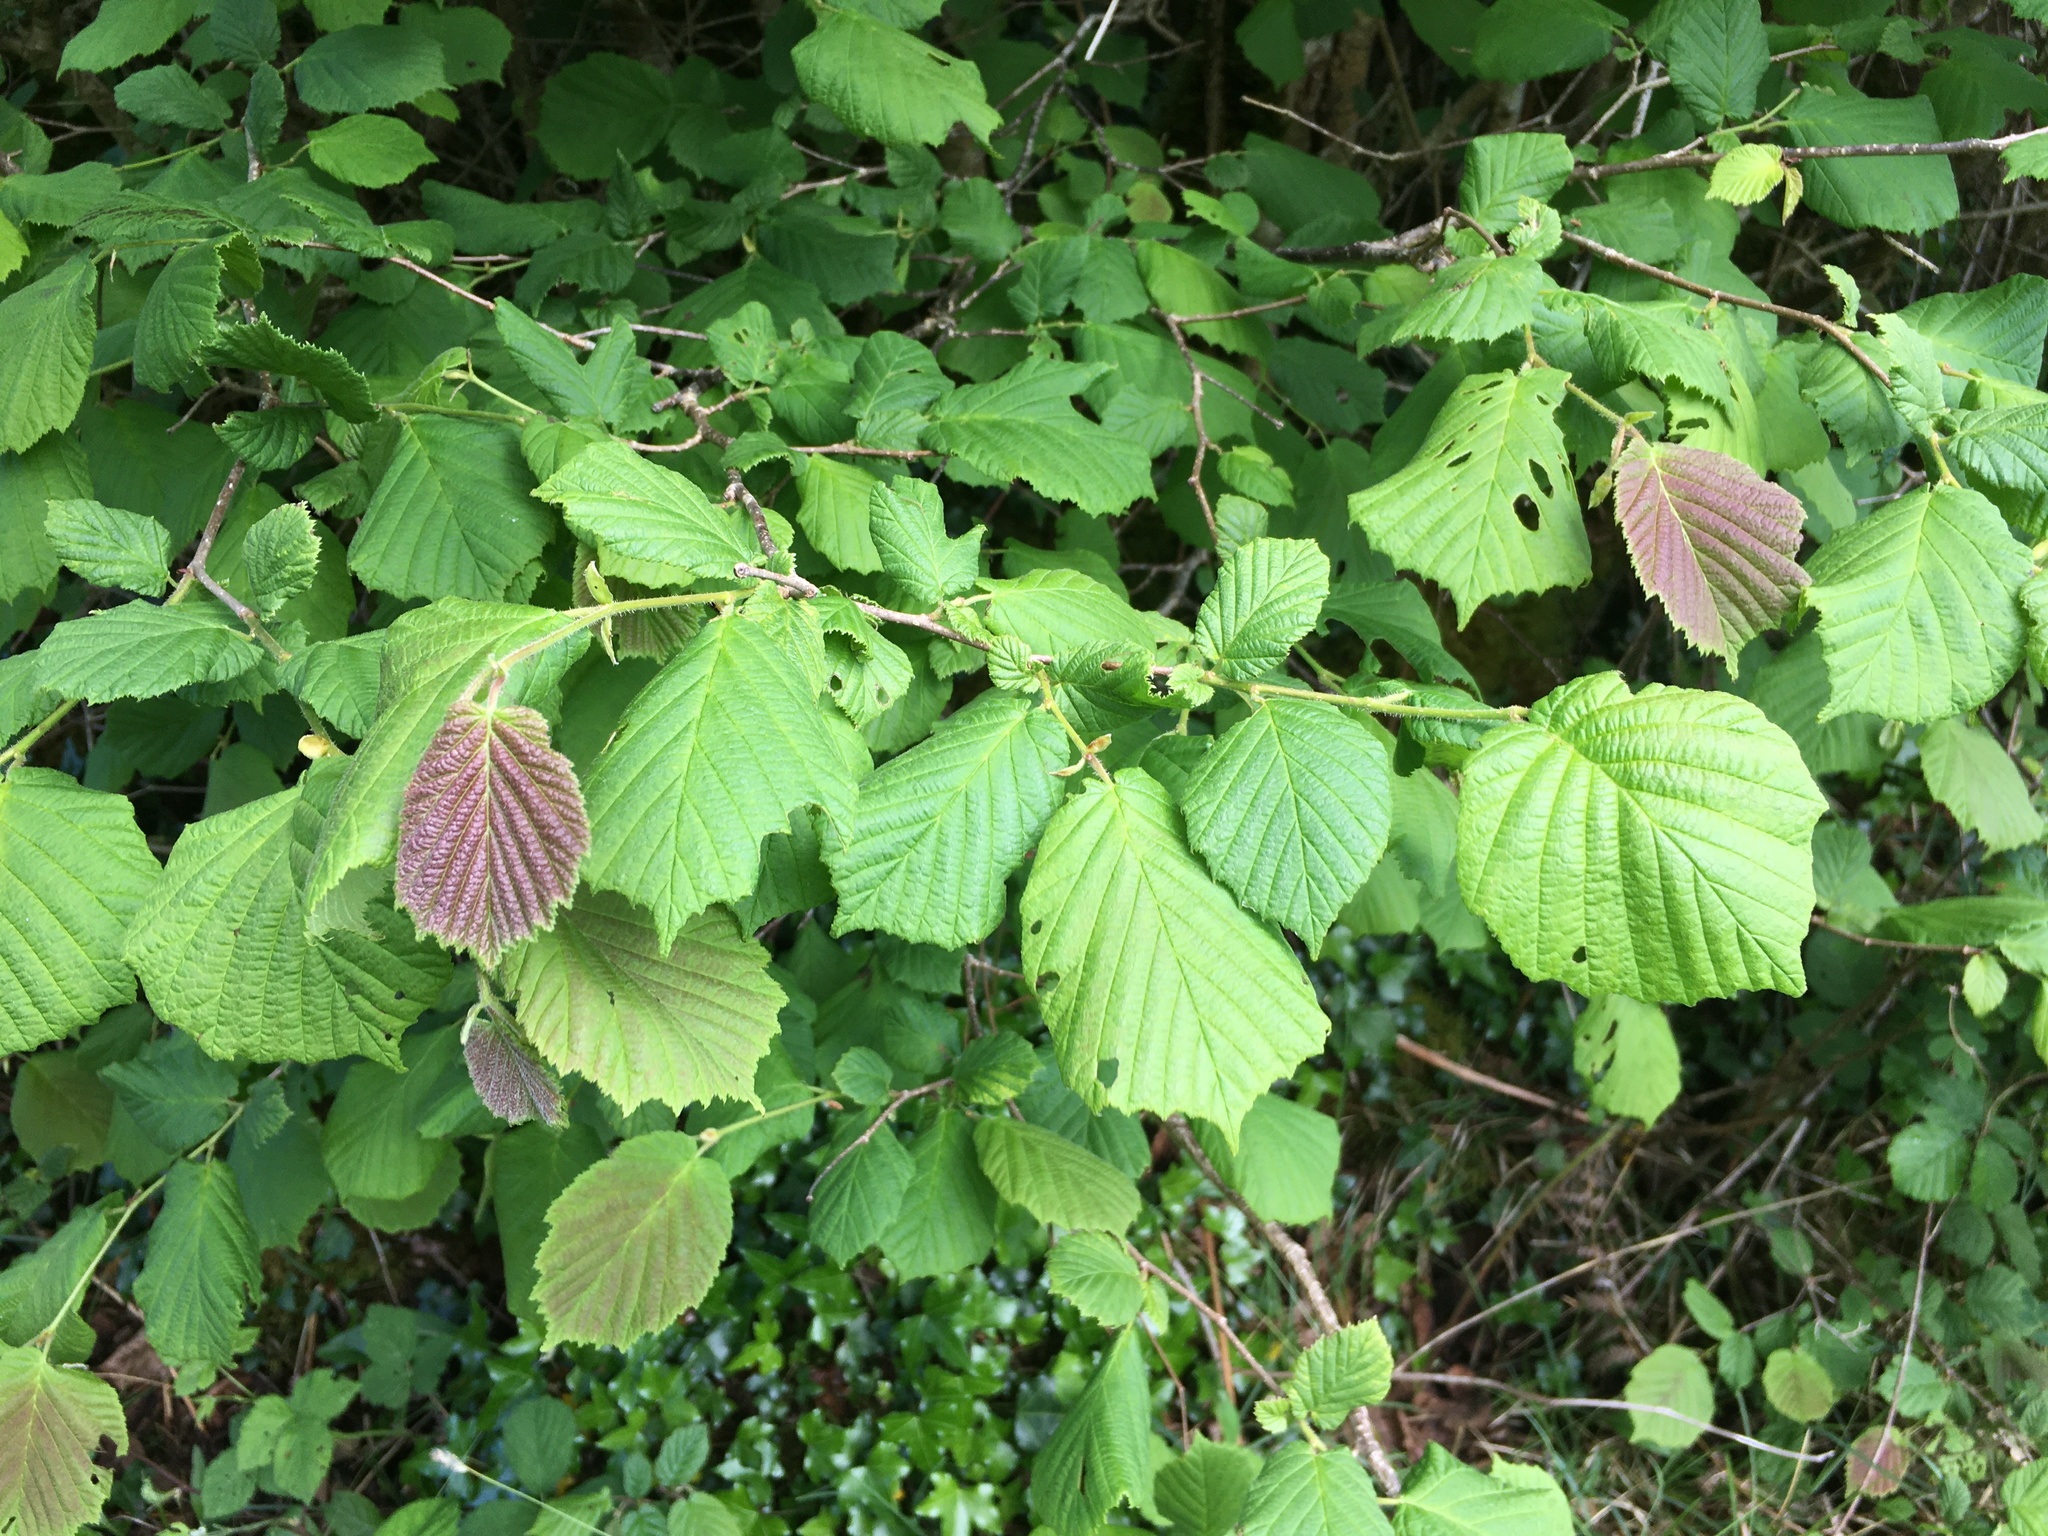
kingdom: Plantae
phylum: Tracheophyta
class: Magnoliopsida
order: Fagales
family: Betulaceae
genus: Corylus
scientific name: Corylus avellana
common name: European hazel
